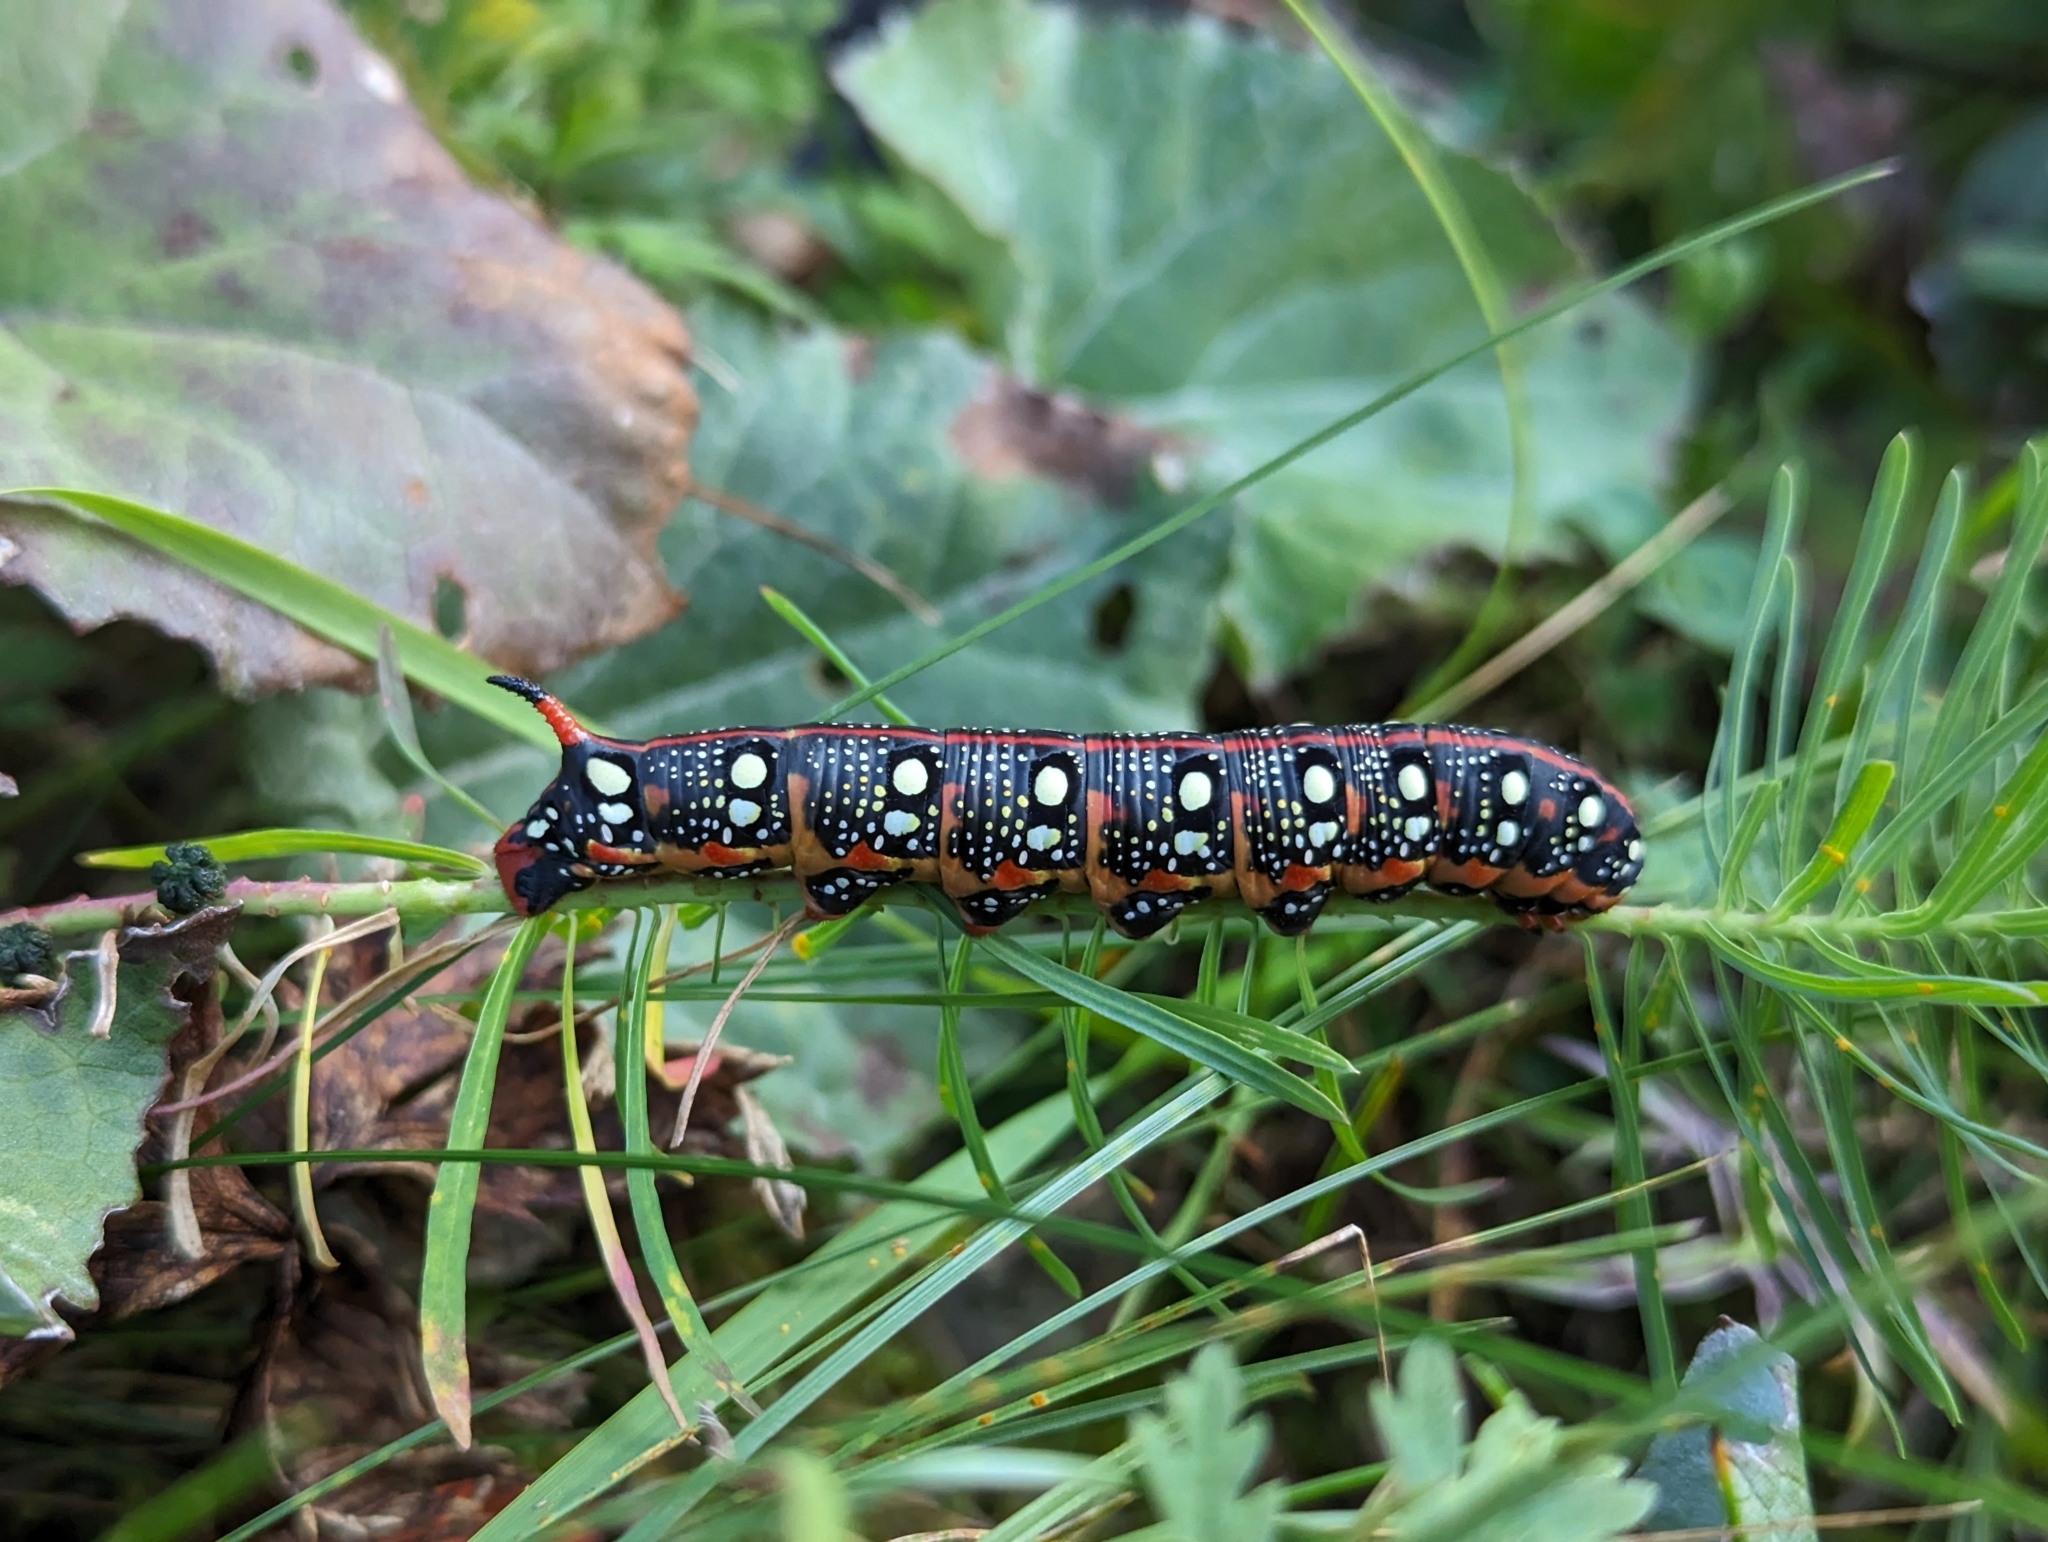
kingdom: Animalia
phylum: Arthropoda
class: Insecta
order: Lepidoptera
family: Sphingidae
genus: Hyles
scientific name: Hyles euphorbiae
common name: Spurge hawk-moth
